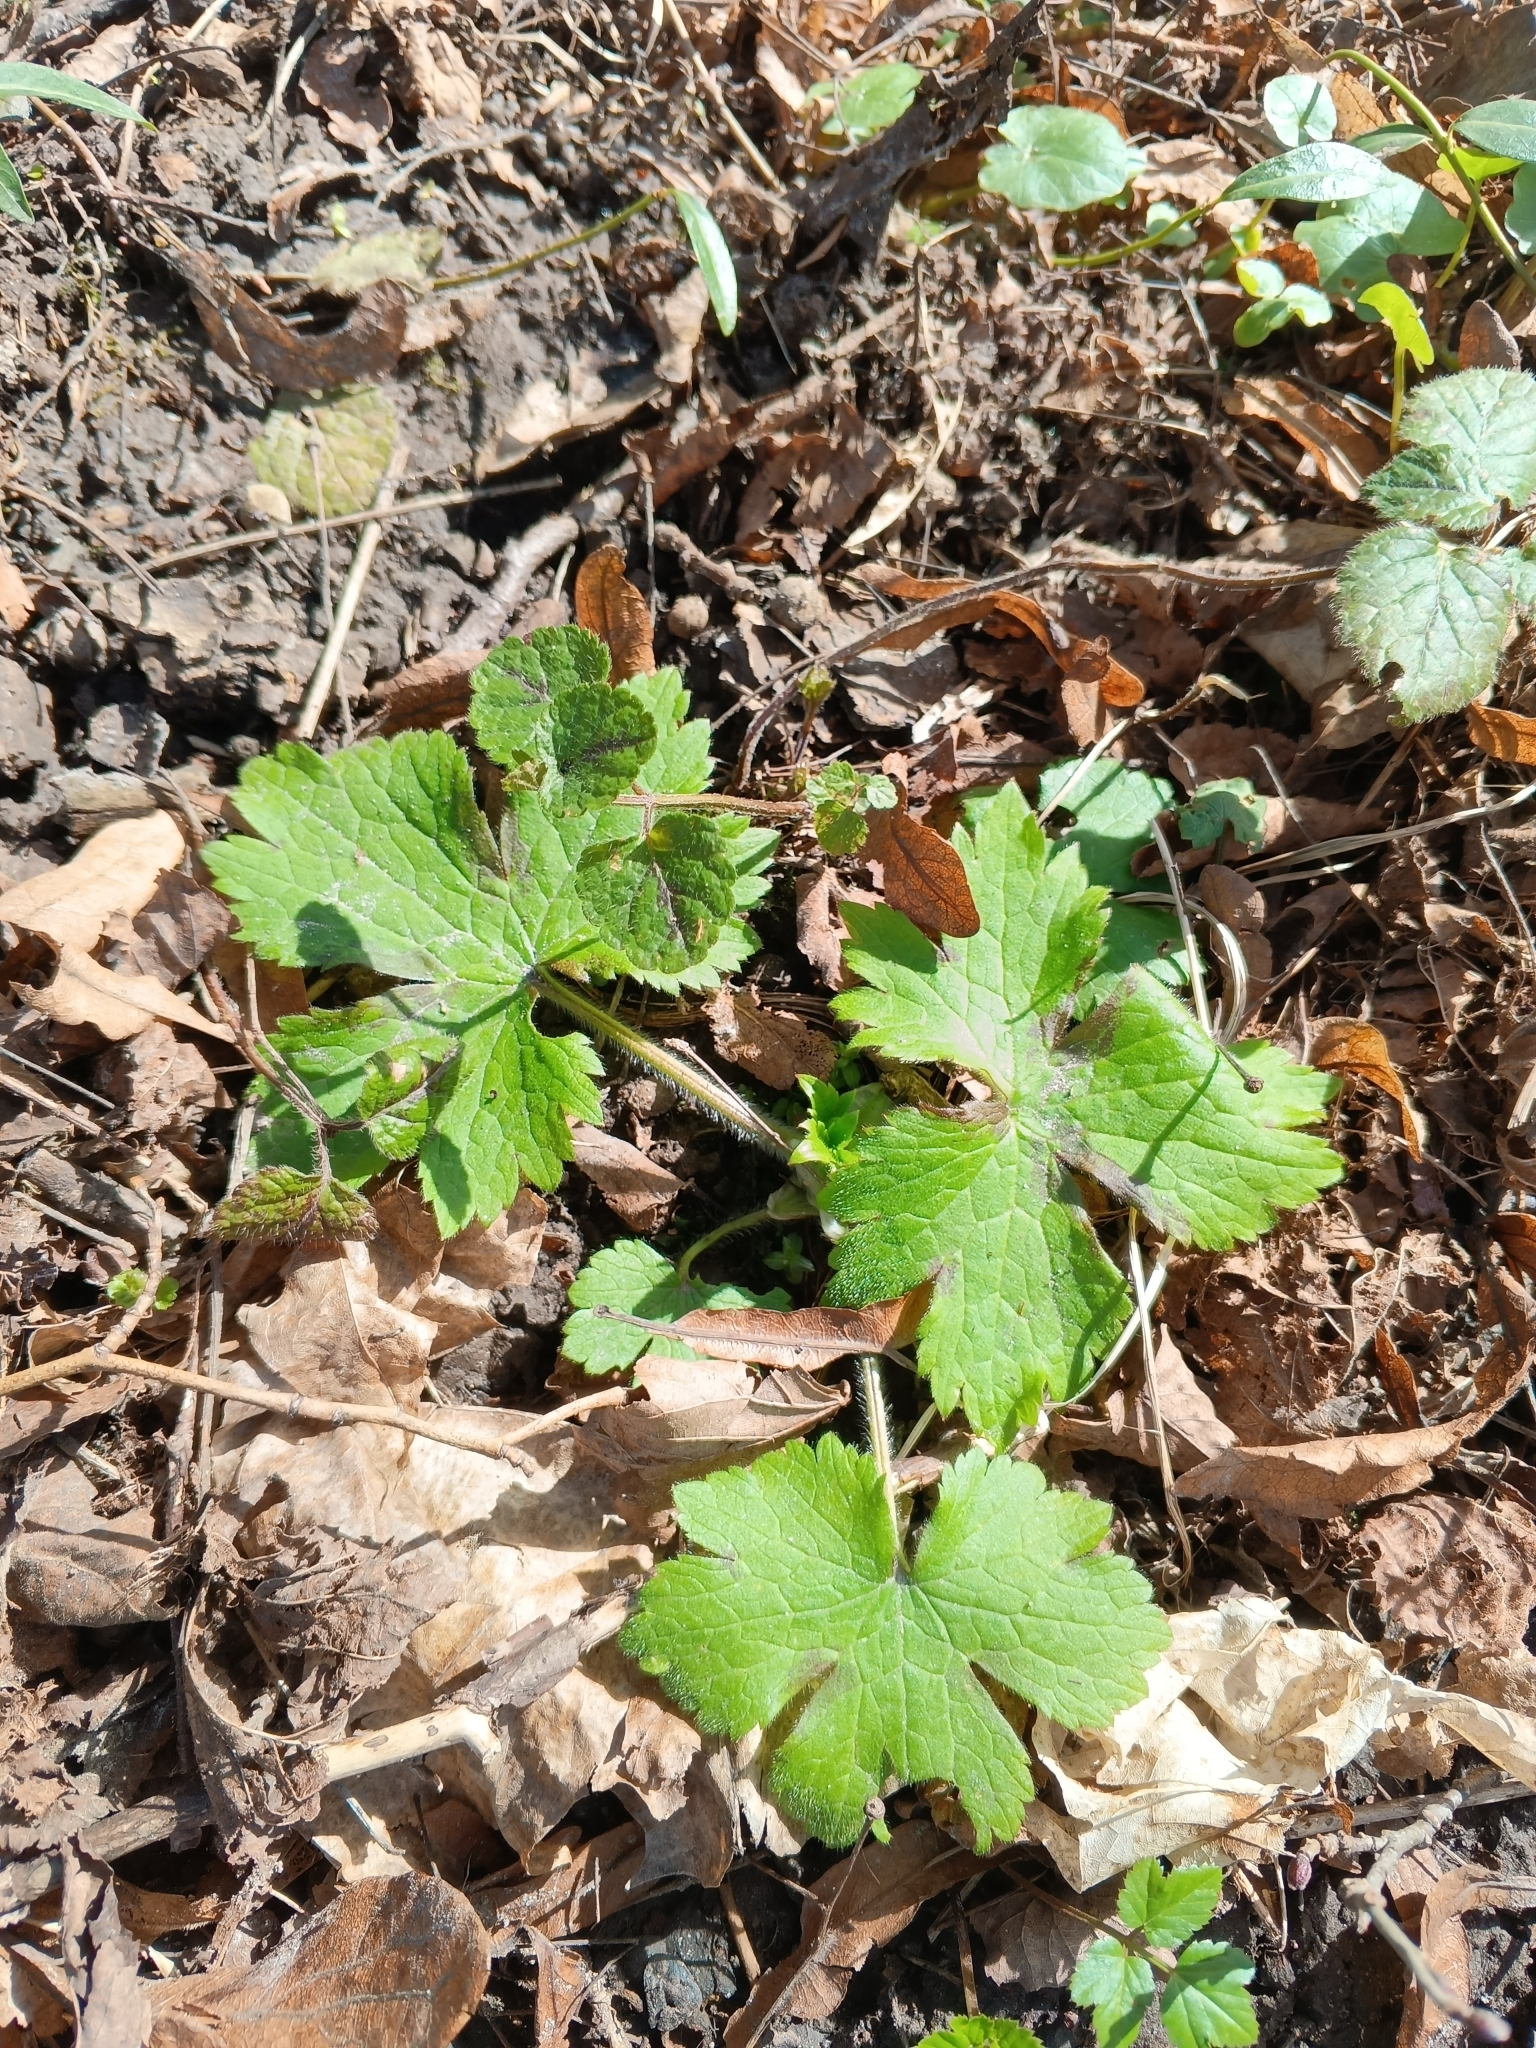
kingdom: Plantae
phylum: Tracheophyta
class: Magnoliopsida
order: Ranunculales
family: Ranunculaceae
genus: Ranunculus
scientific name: Ranunculus lanuginosus
